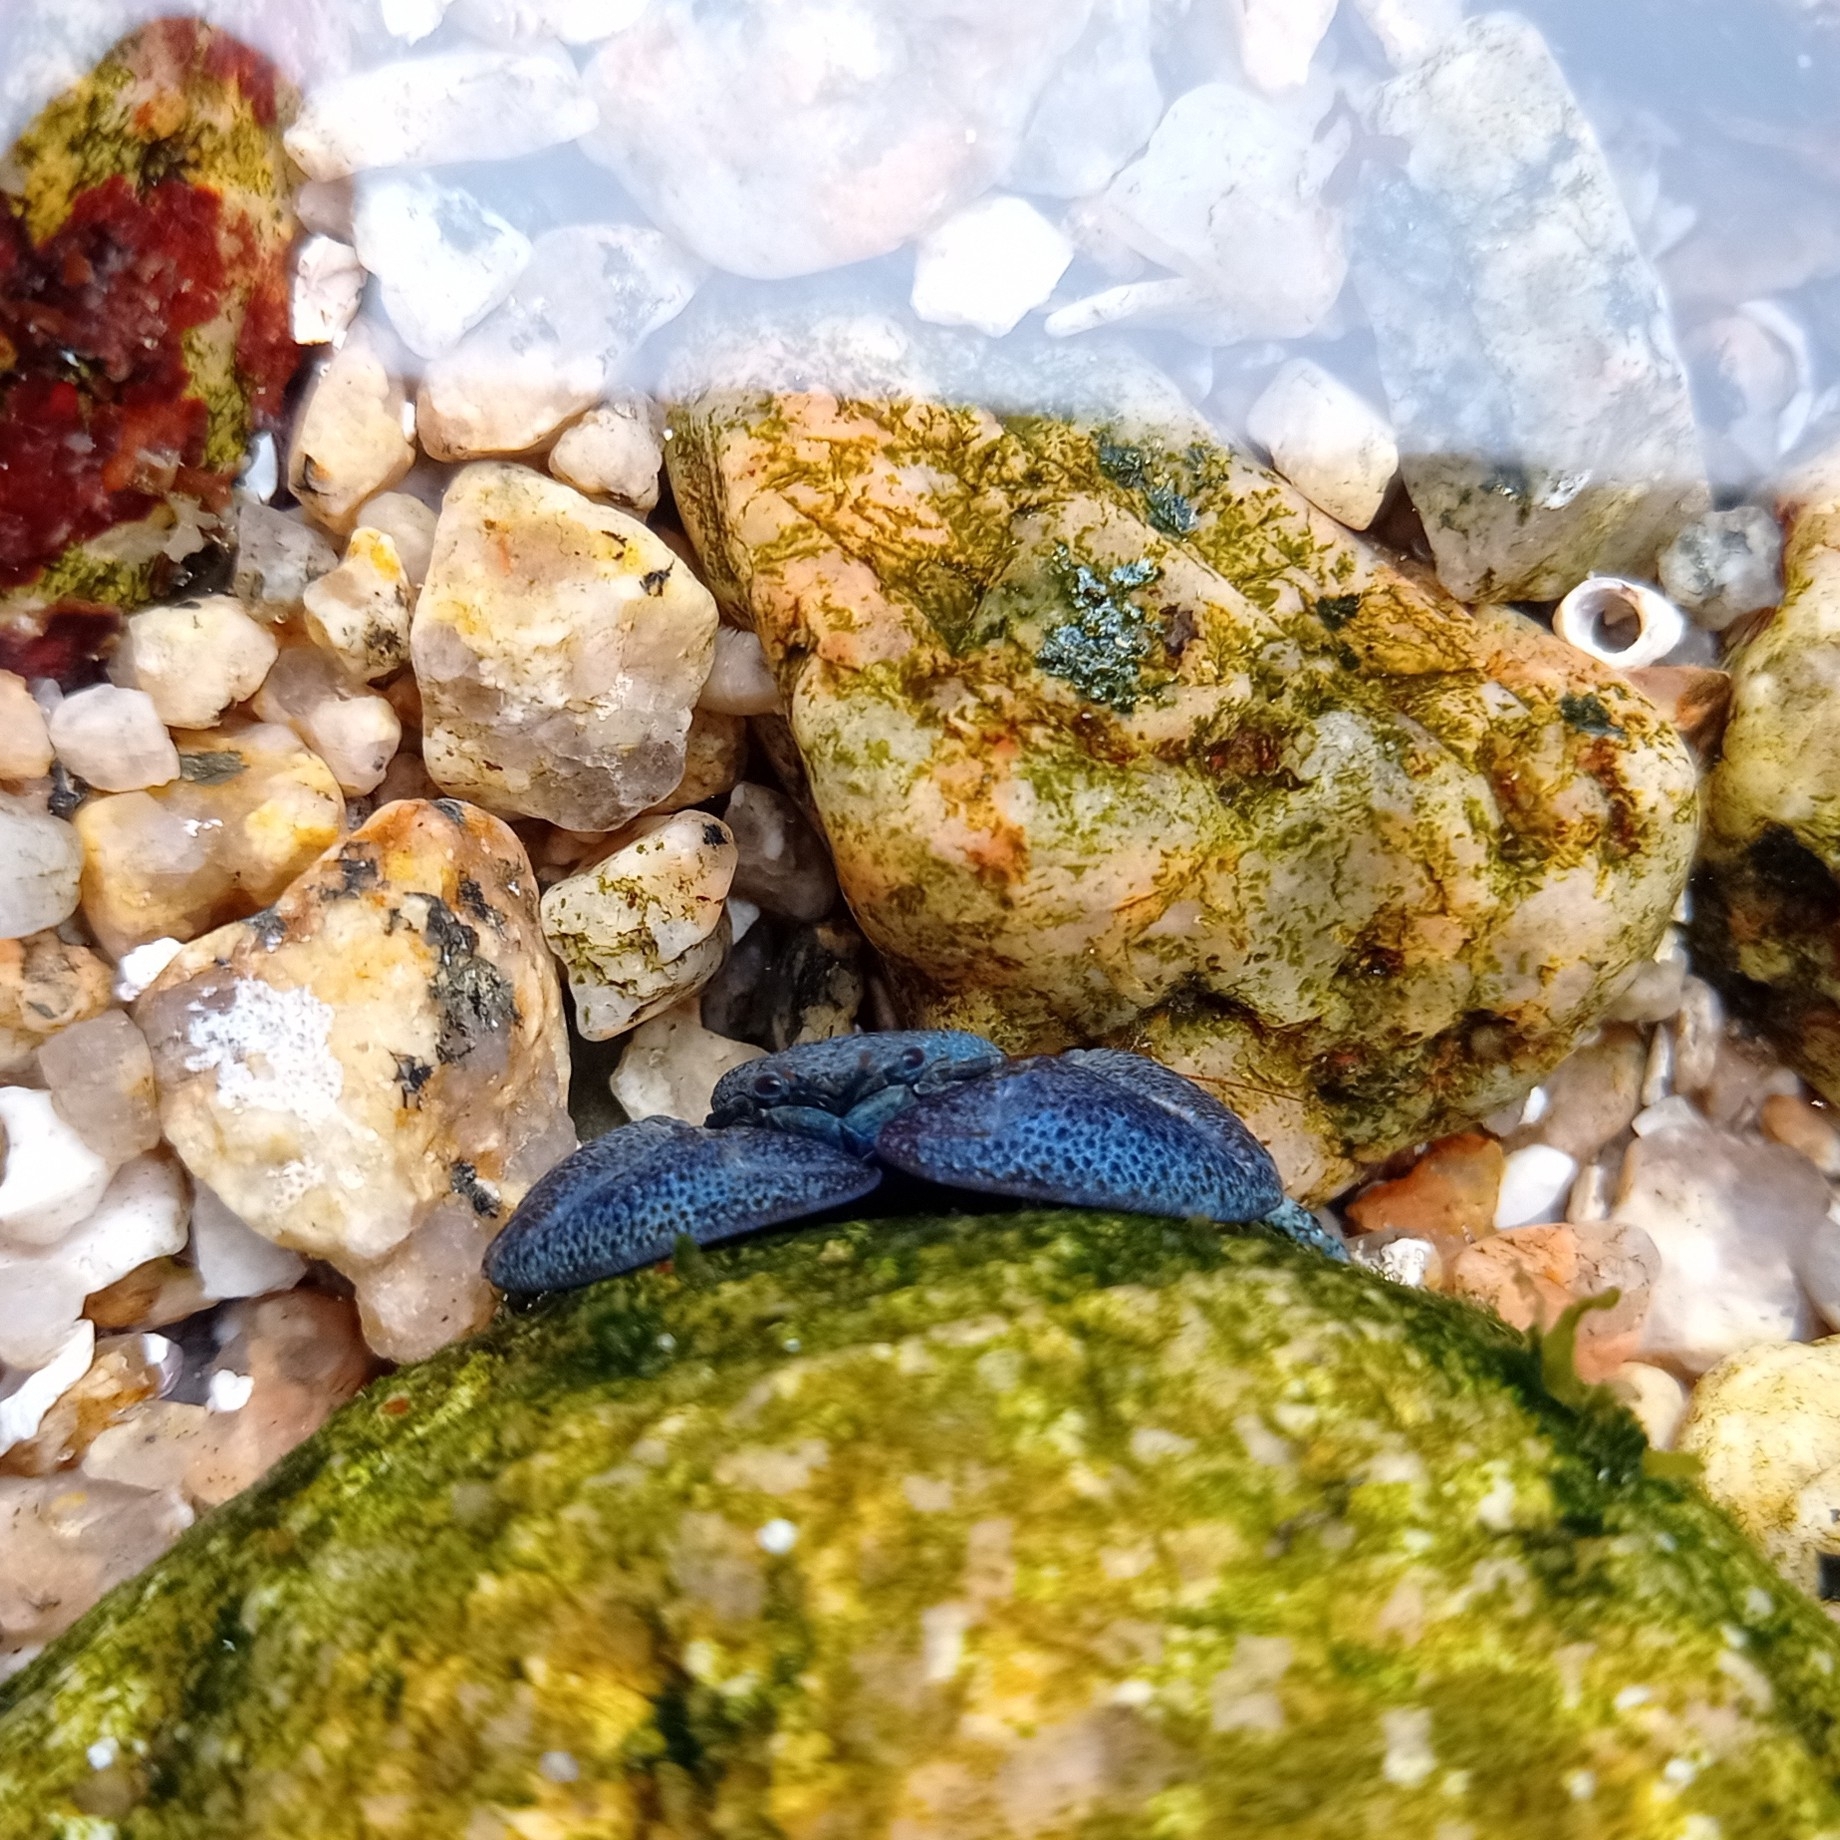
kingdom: Animalia
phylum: Arthropoda
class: Malacostraca
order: Decapoda
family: Porcellanidae
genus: Petrolisthes
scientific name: Petrolisthes granulosus
